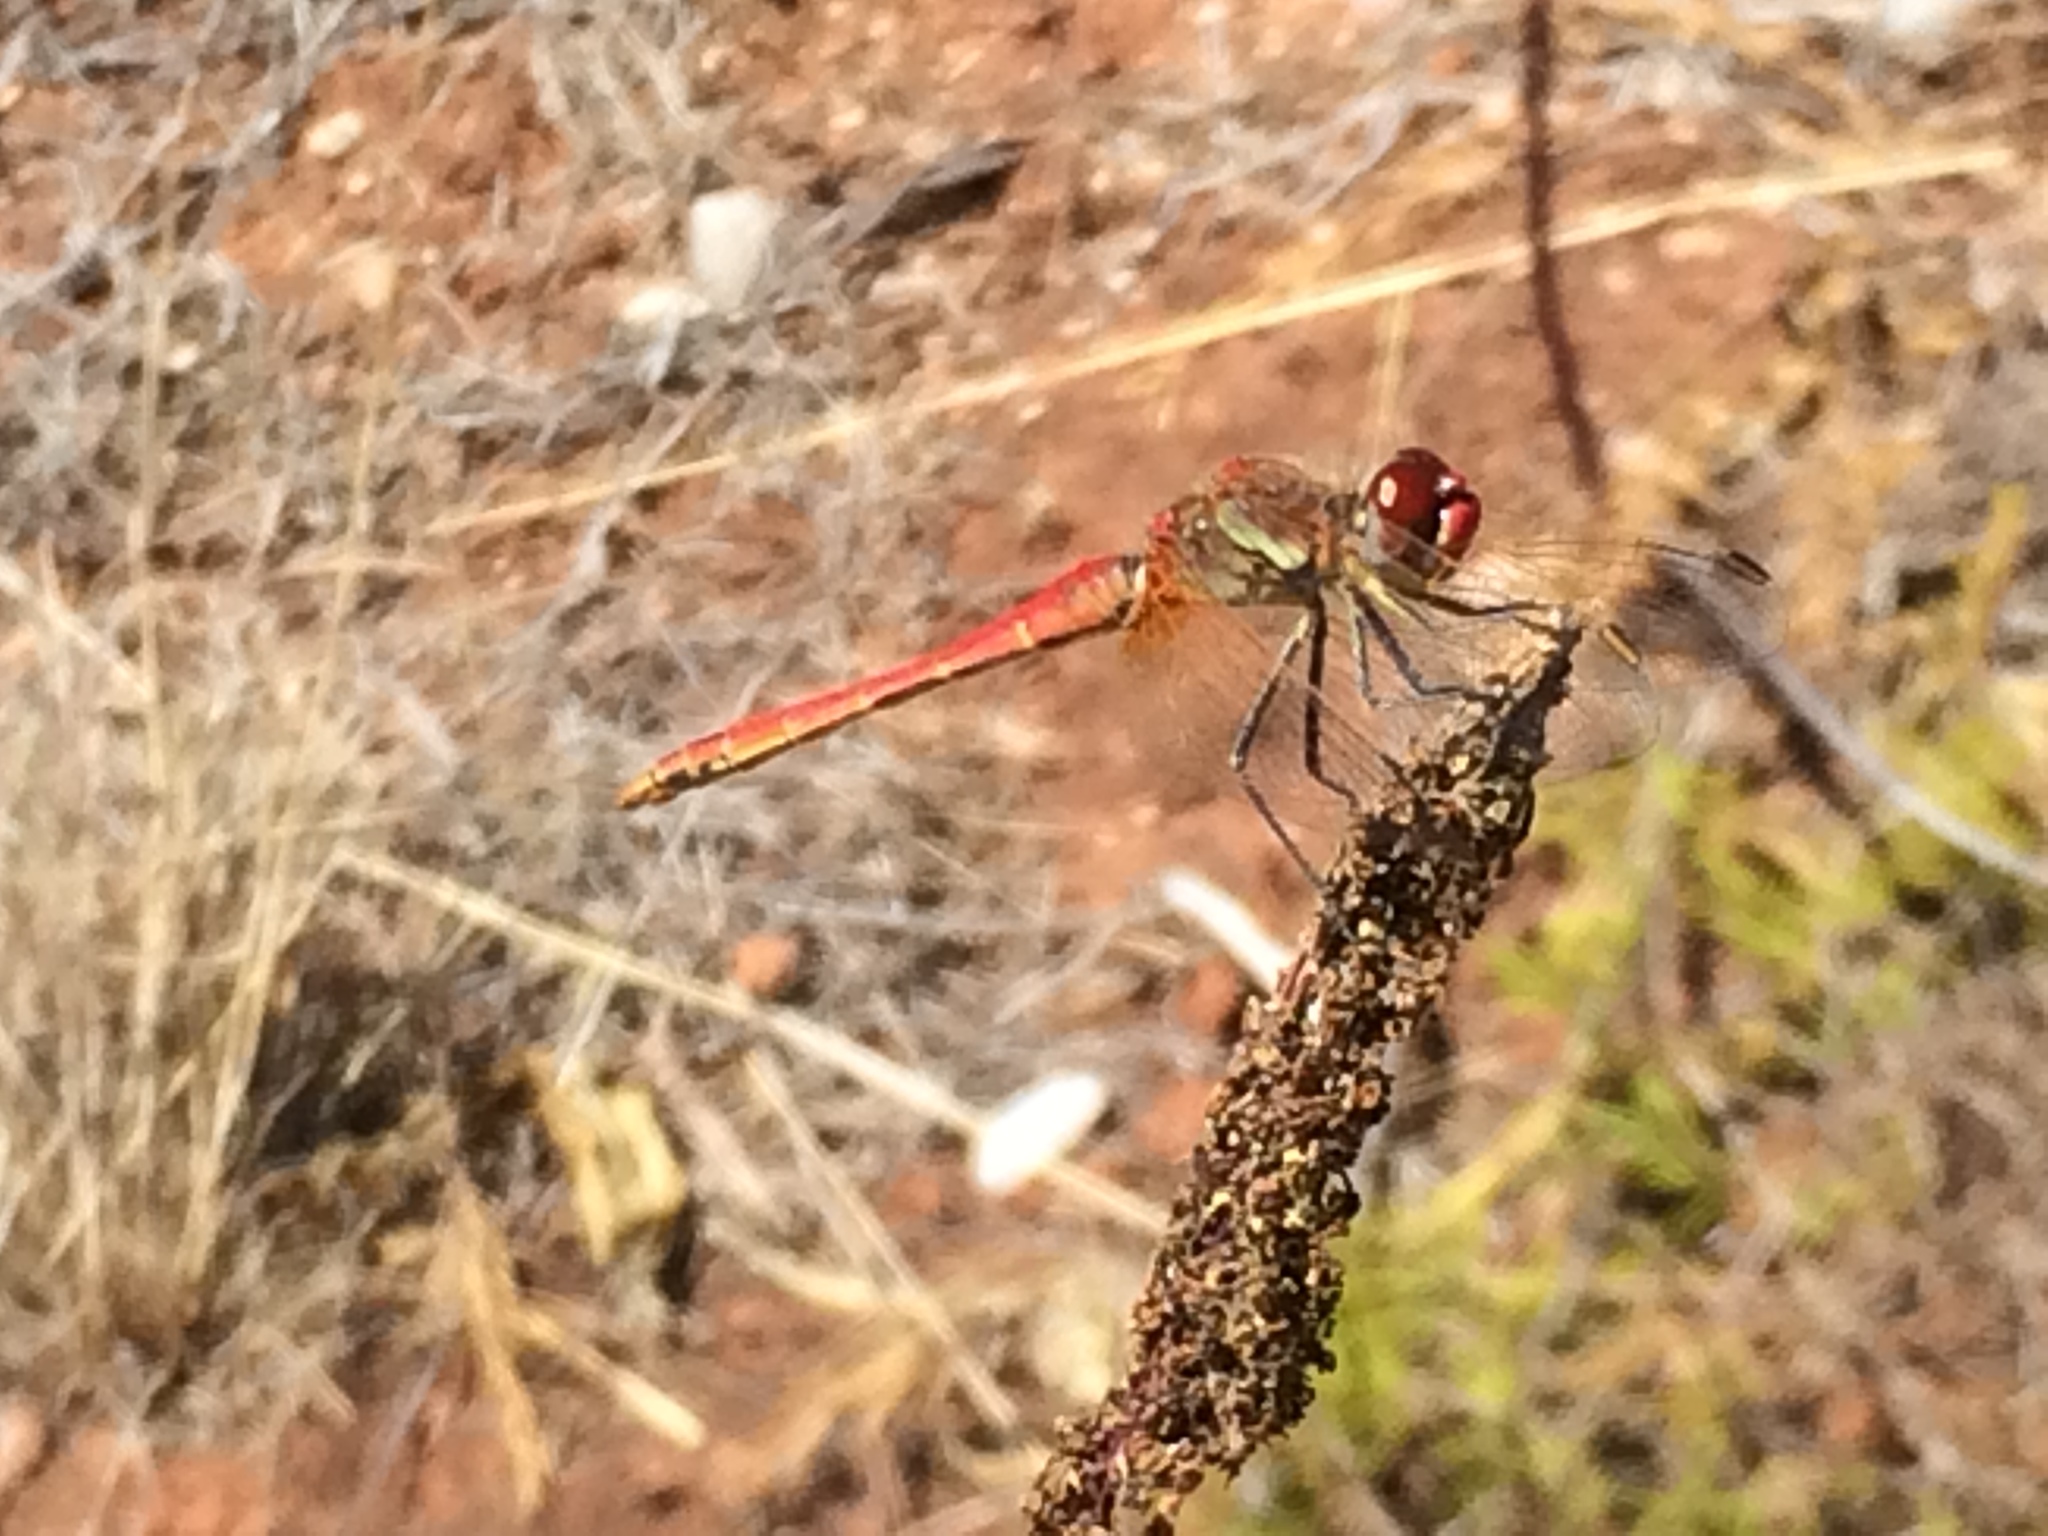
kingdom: Animalia
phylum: Arthropoda
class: Insecta
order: Odonata
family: Libellulidae
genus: Sympetrum
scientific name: Sympetrum fonscolombii
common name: Red-veined darter
